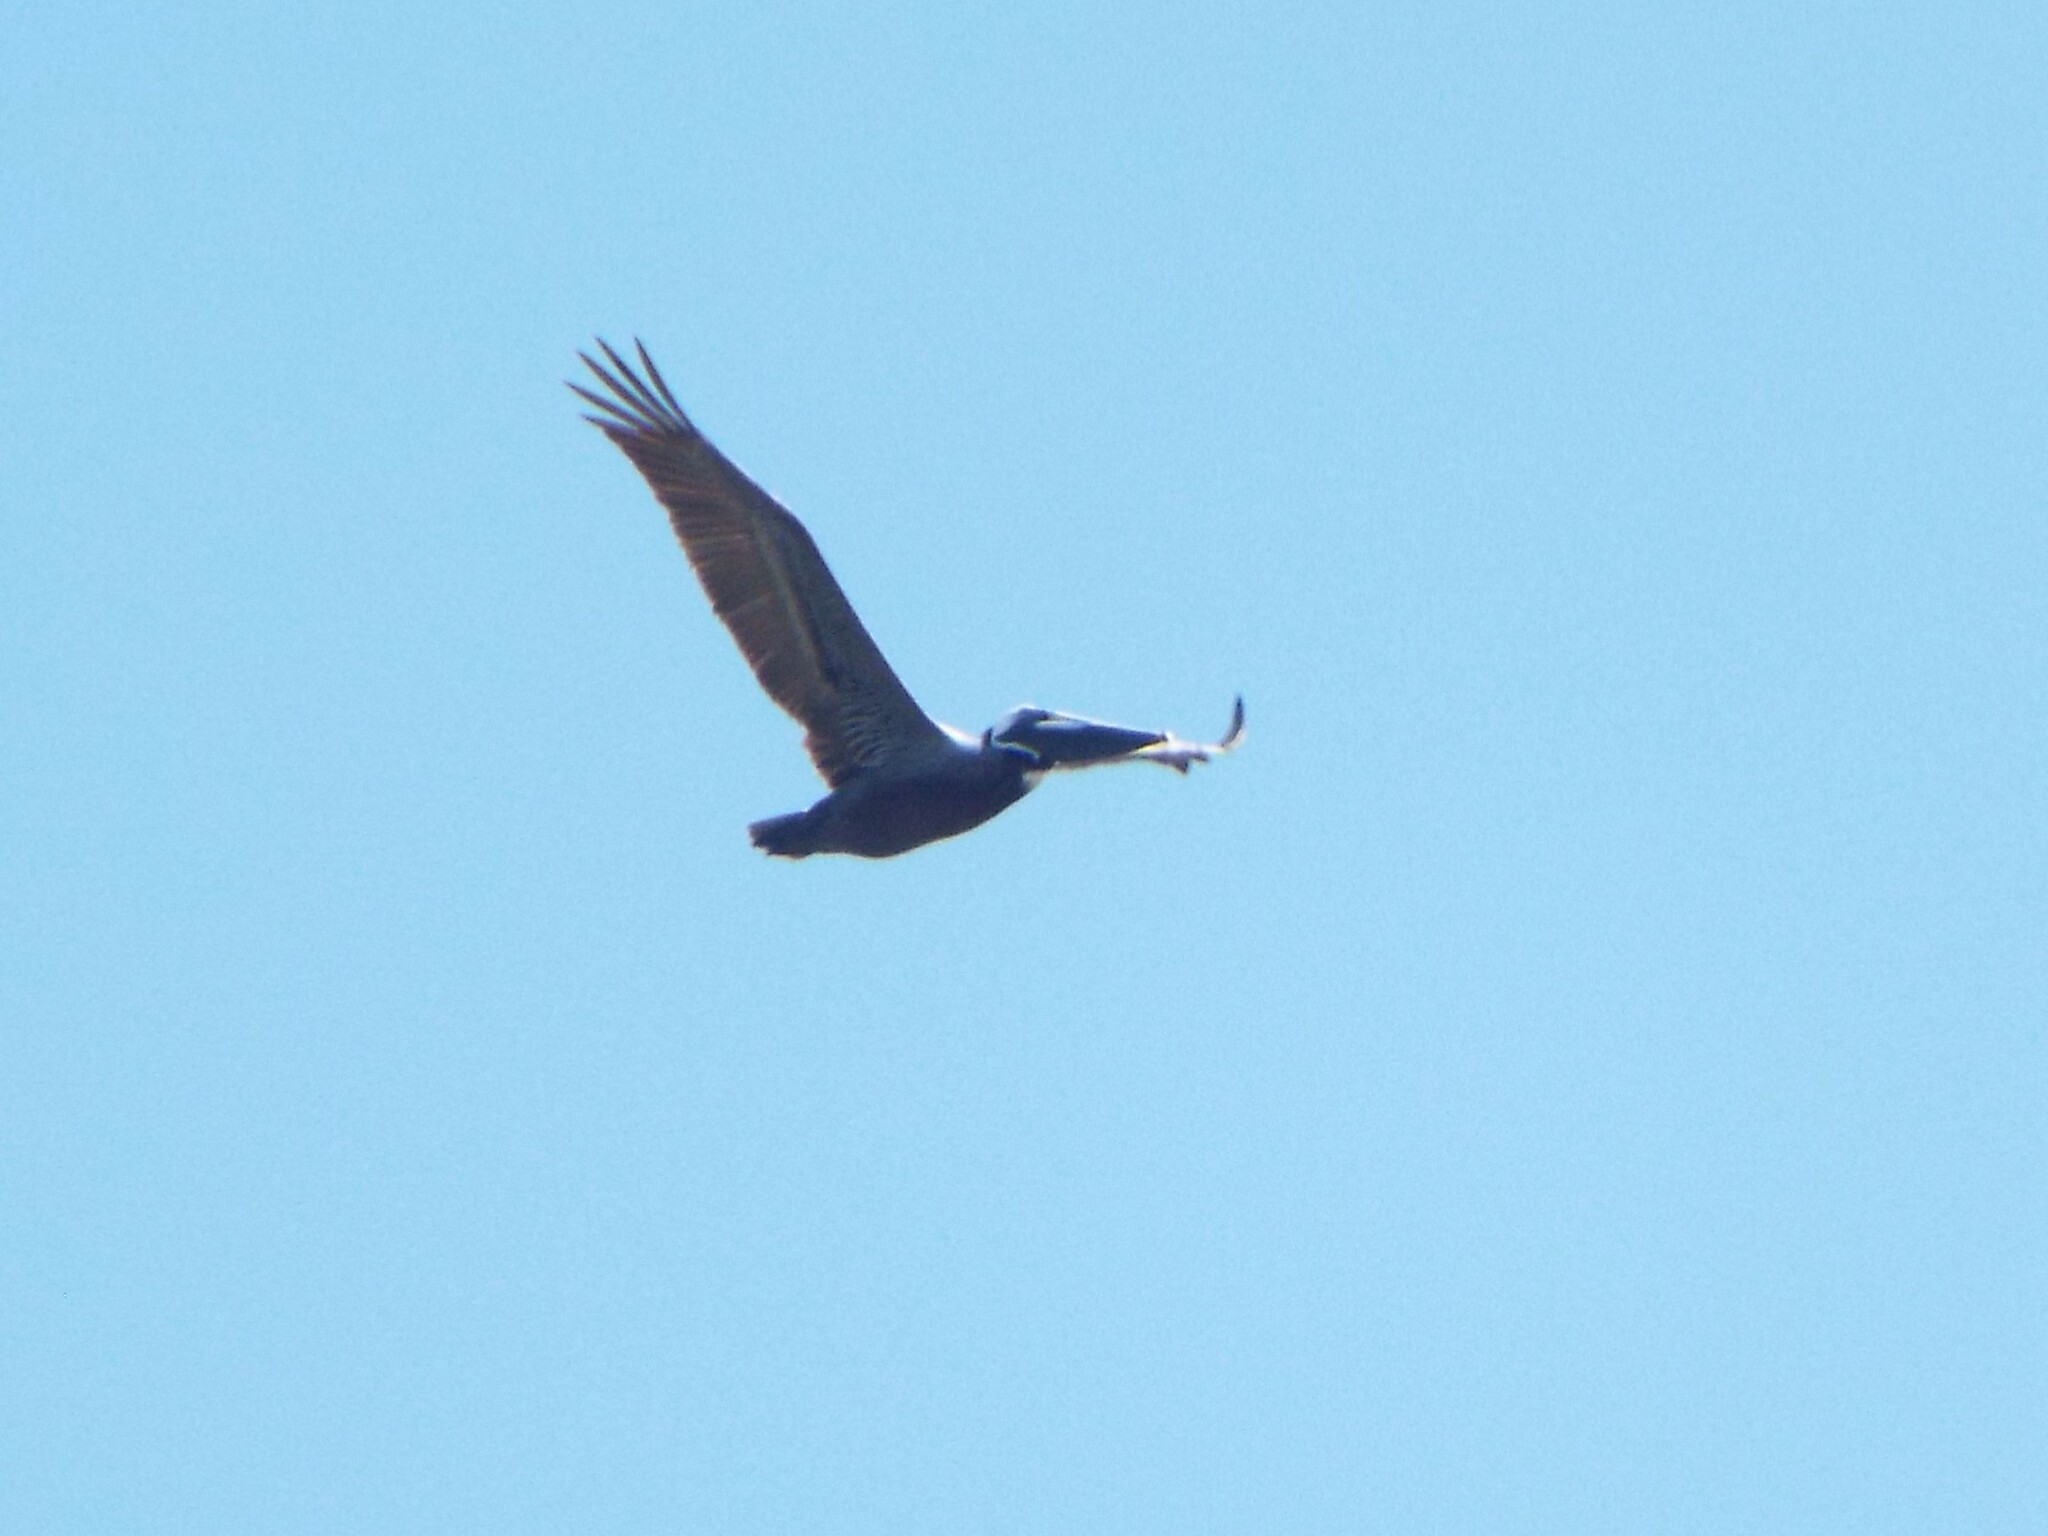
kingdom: Animalia
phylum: Chordata
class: Aves
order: Pelecaniformes
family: Pelecanidae
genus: Pelecanus
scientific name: Pelecanus occidentalis
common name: Brown pelican
